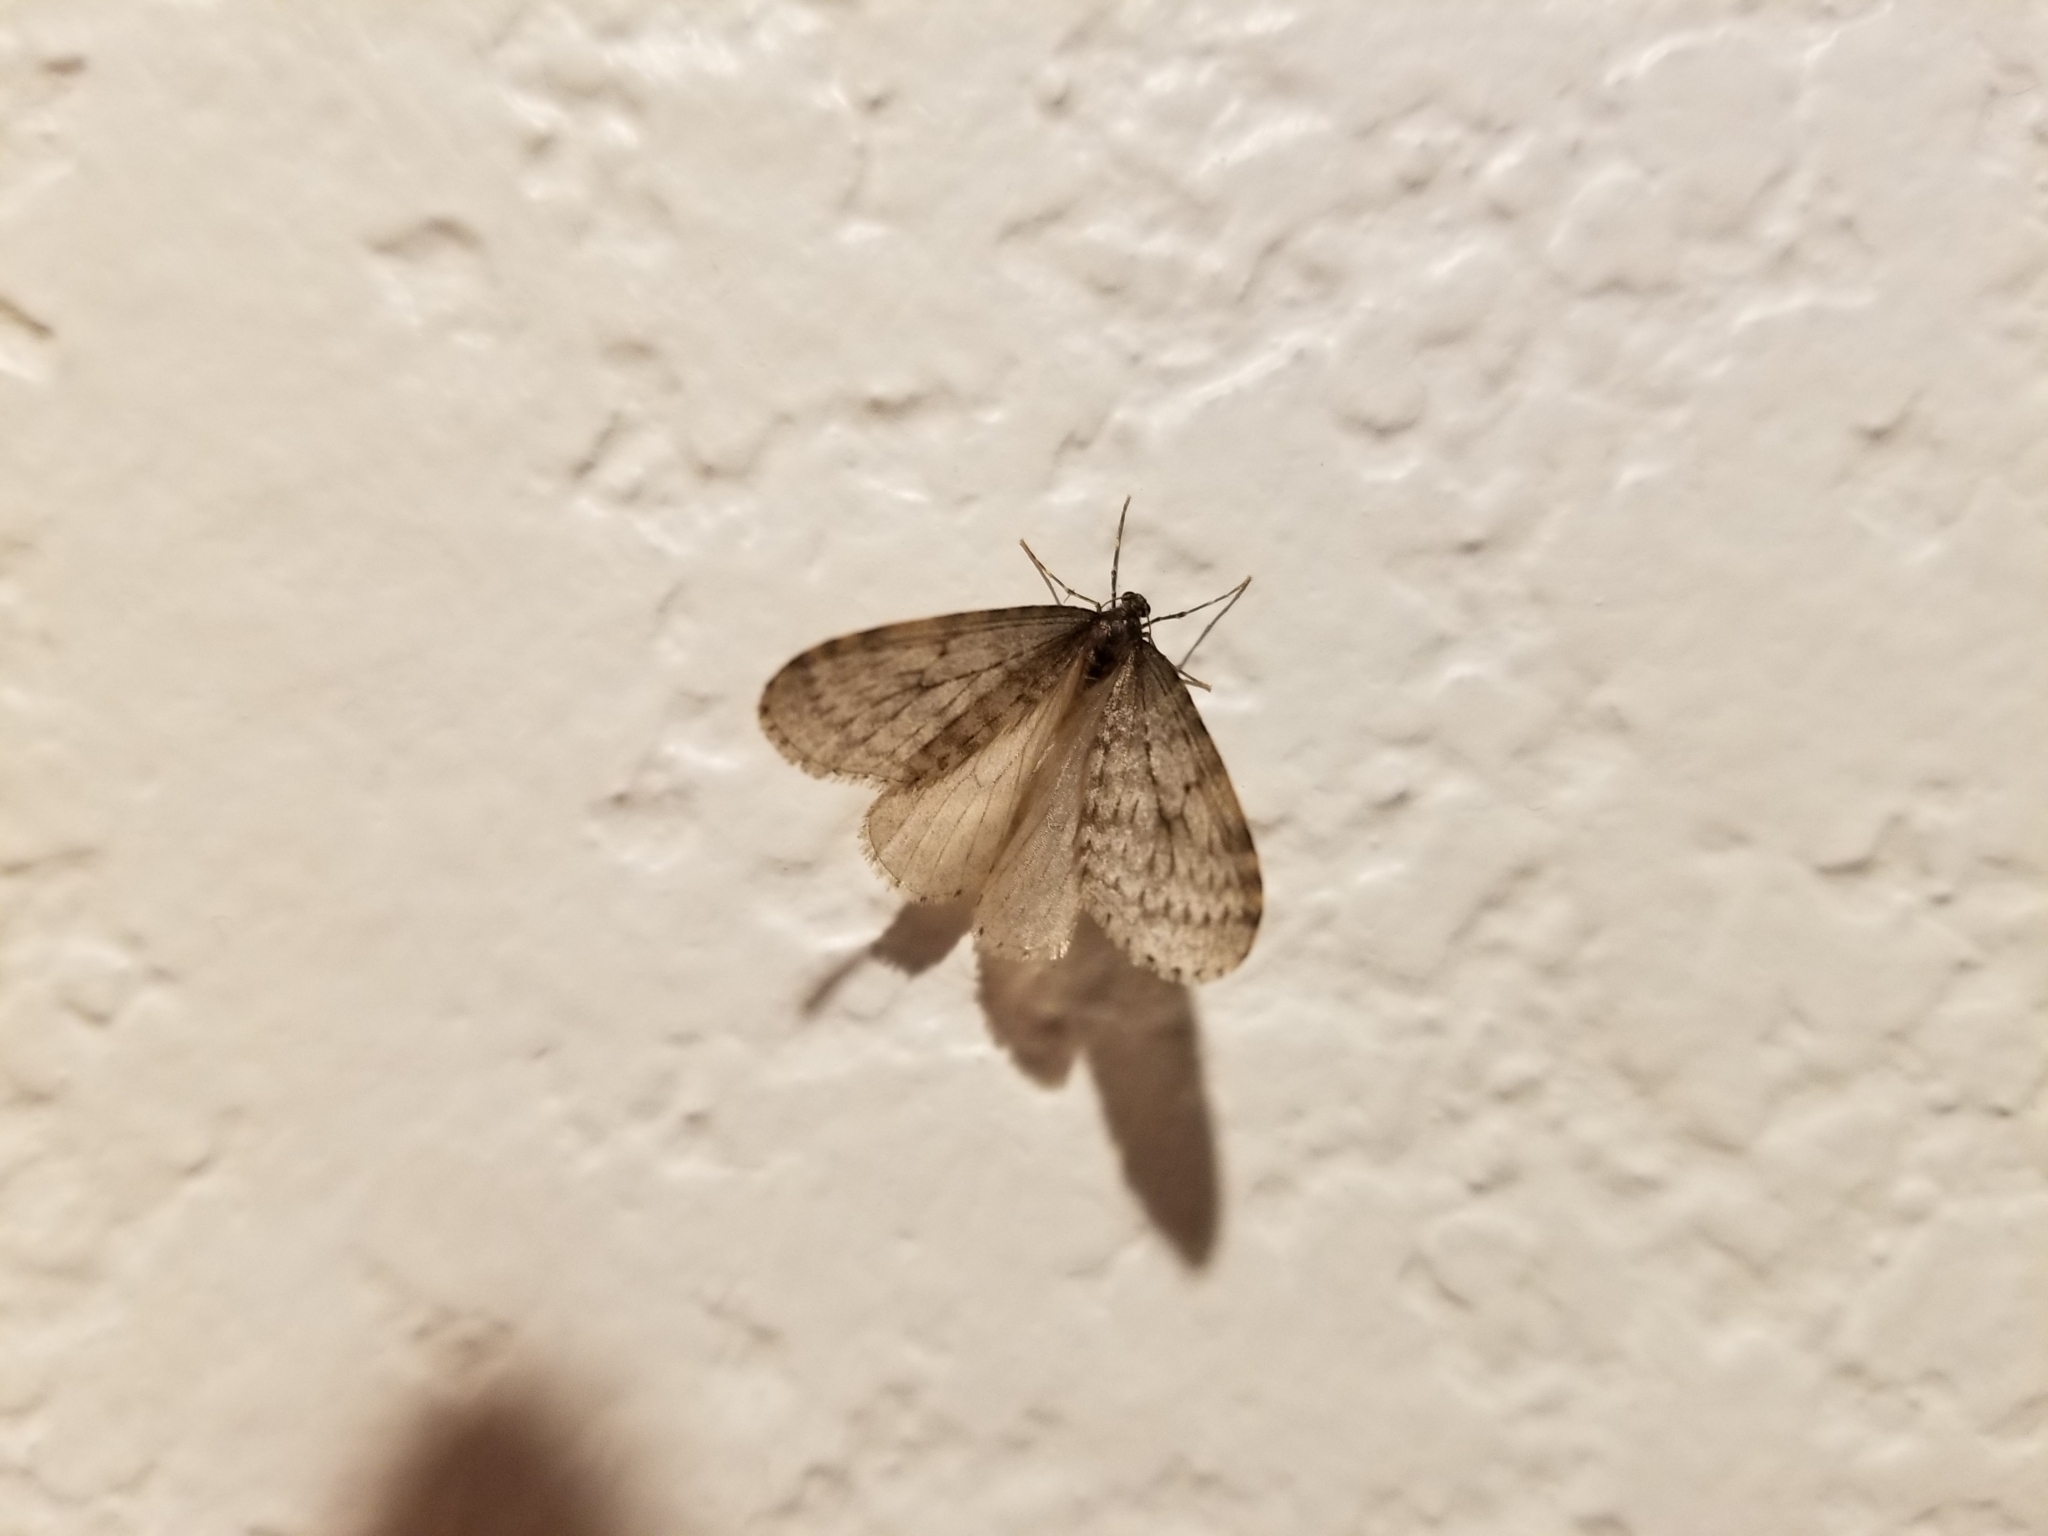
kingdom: Animalia
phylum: Arthropoda
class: Insecta
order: Lepidoptera
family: Geometridae
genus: Operophtera
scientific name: Operophtera bruceata
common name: Bruce spanworm
